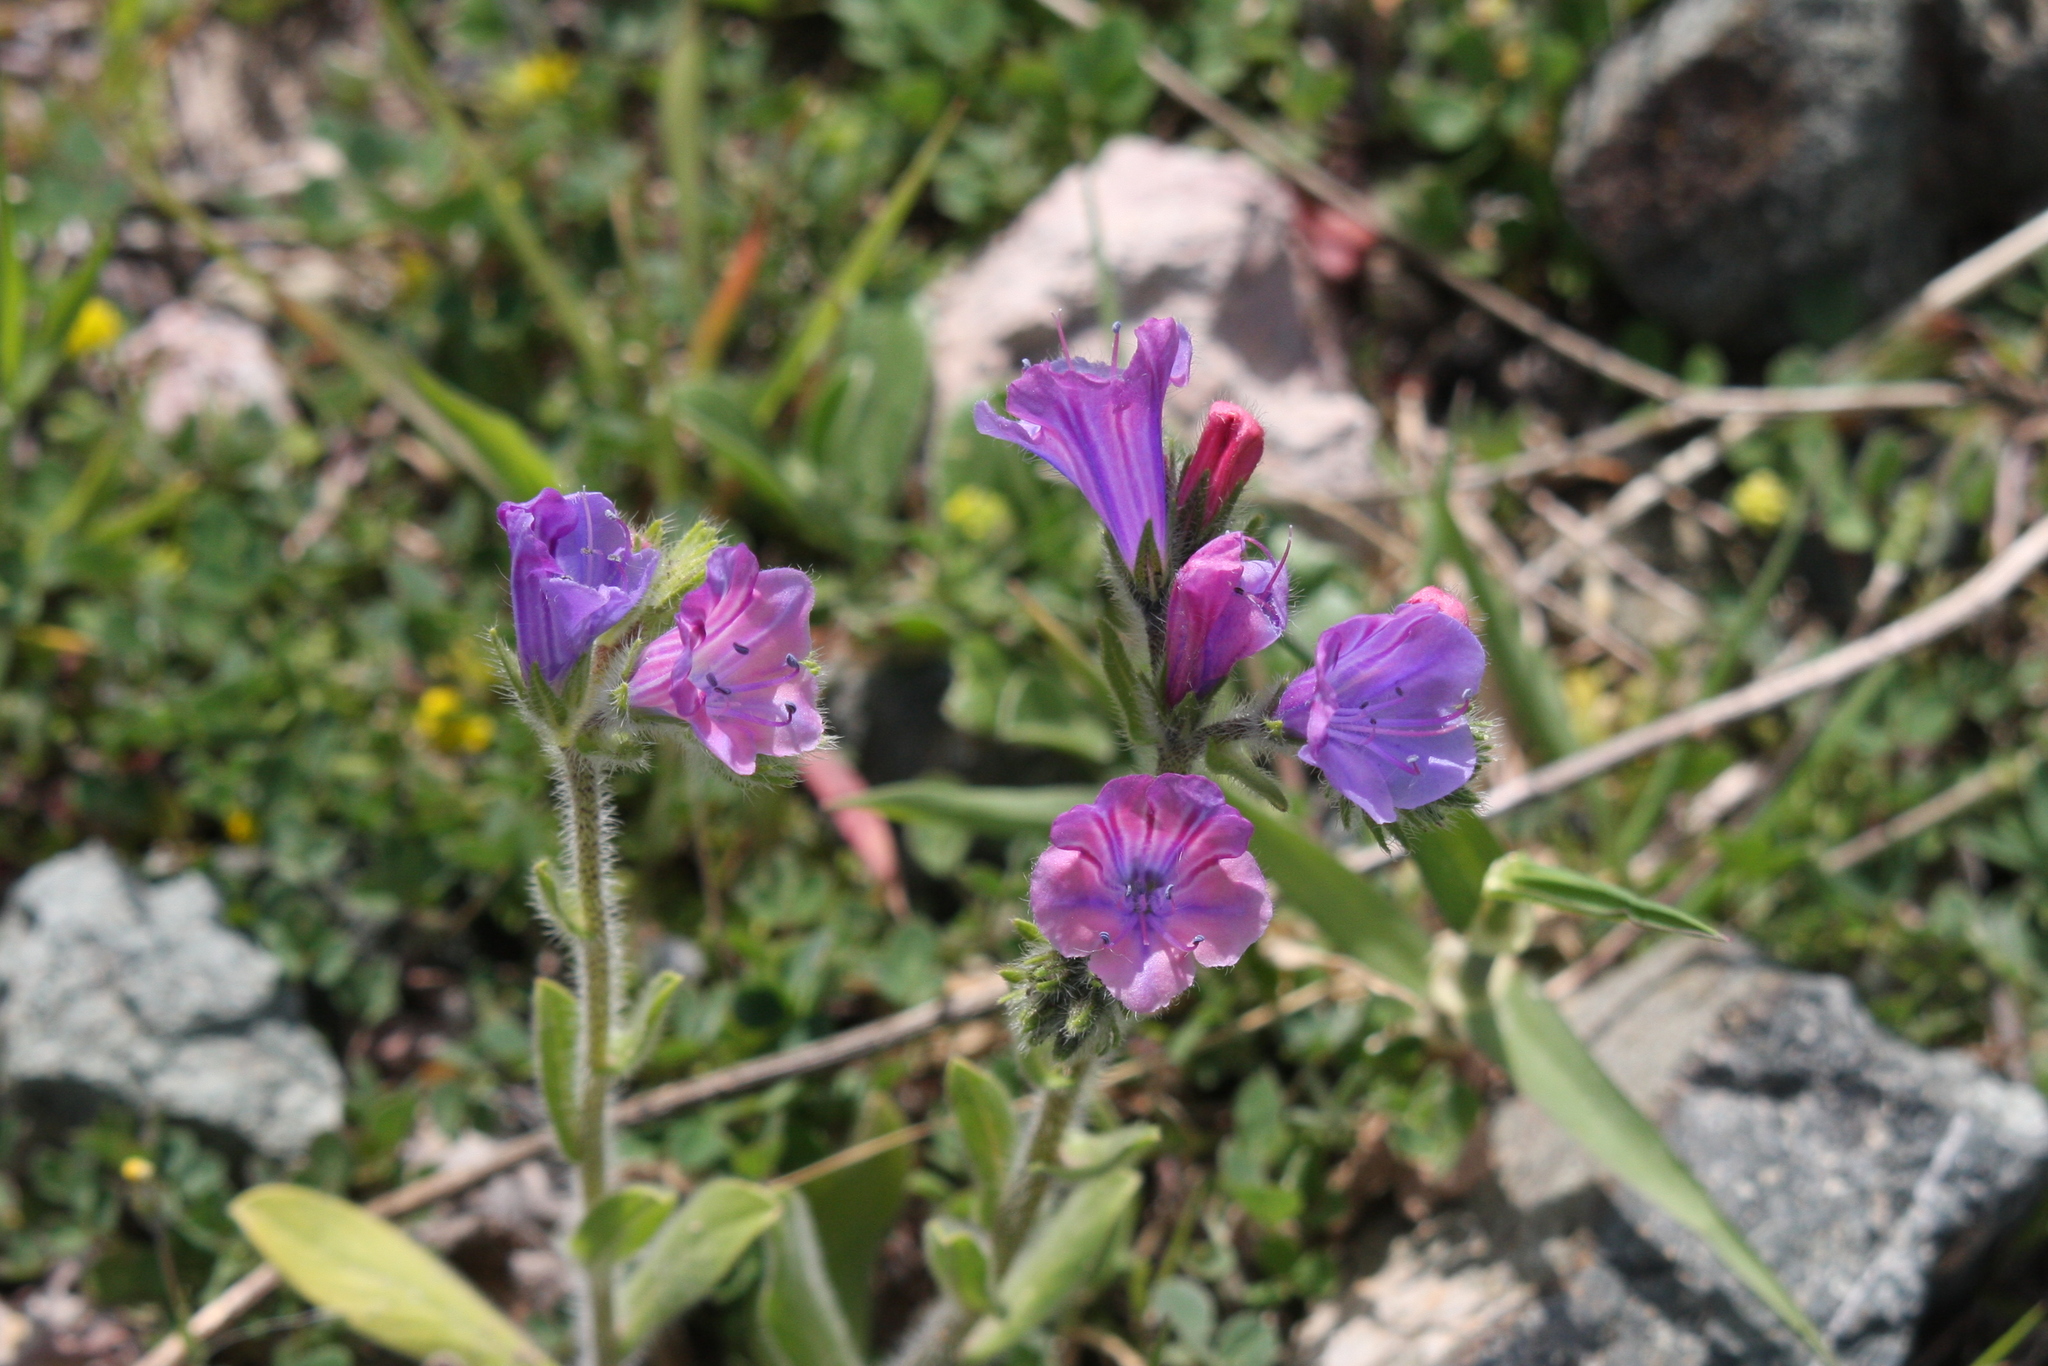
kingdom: Plantae
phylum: Tracheophyta
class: Magnoliopsida
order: Boraginales
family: Boraginaceae
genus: Echium
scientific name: Echium plantagineum
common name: Purple viper's-bugloss
